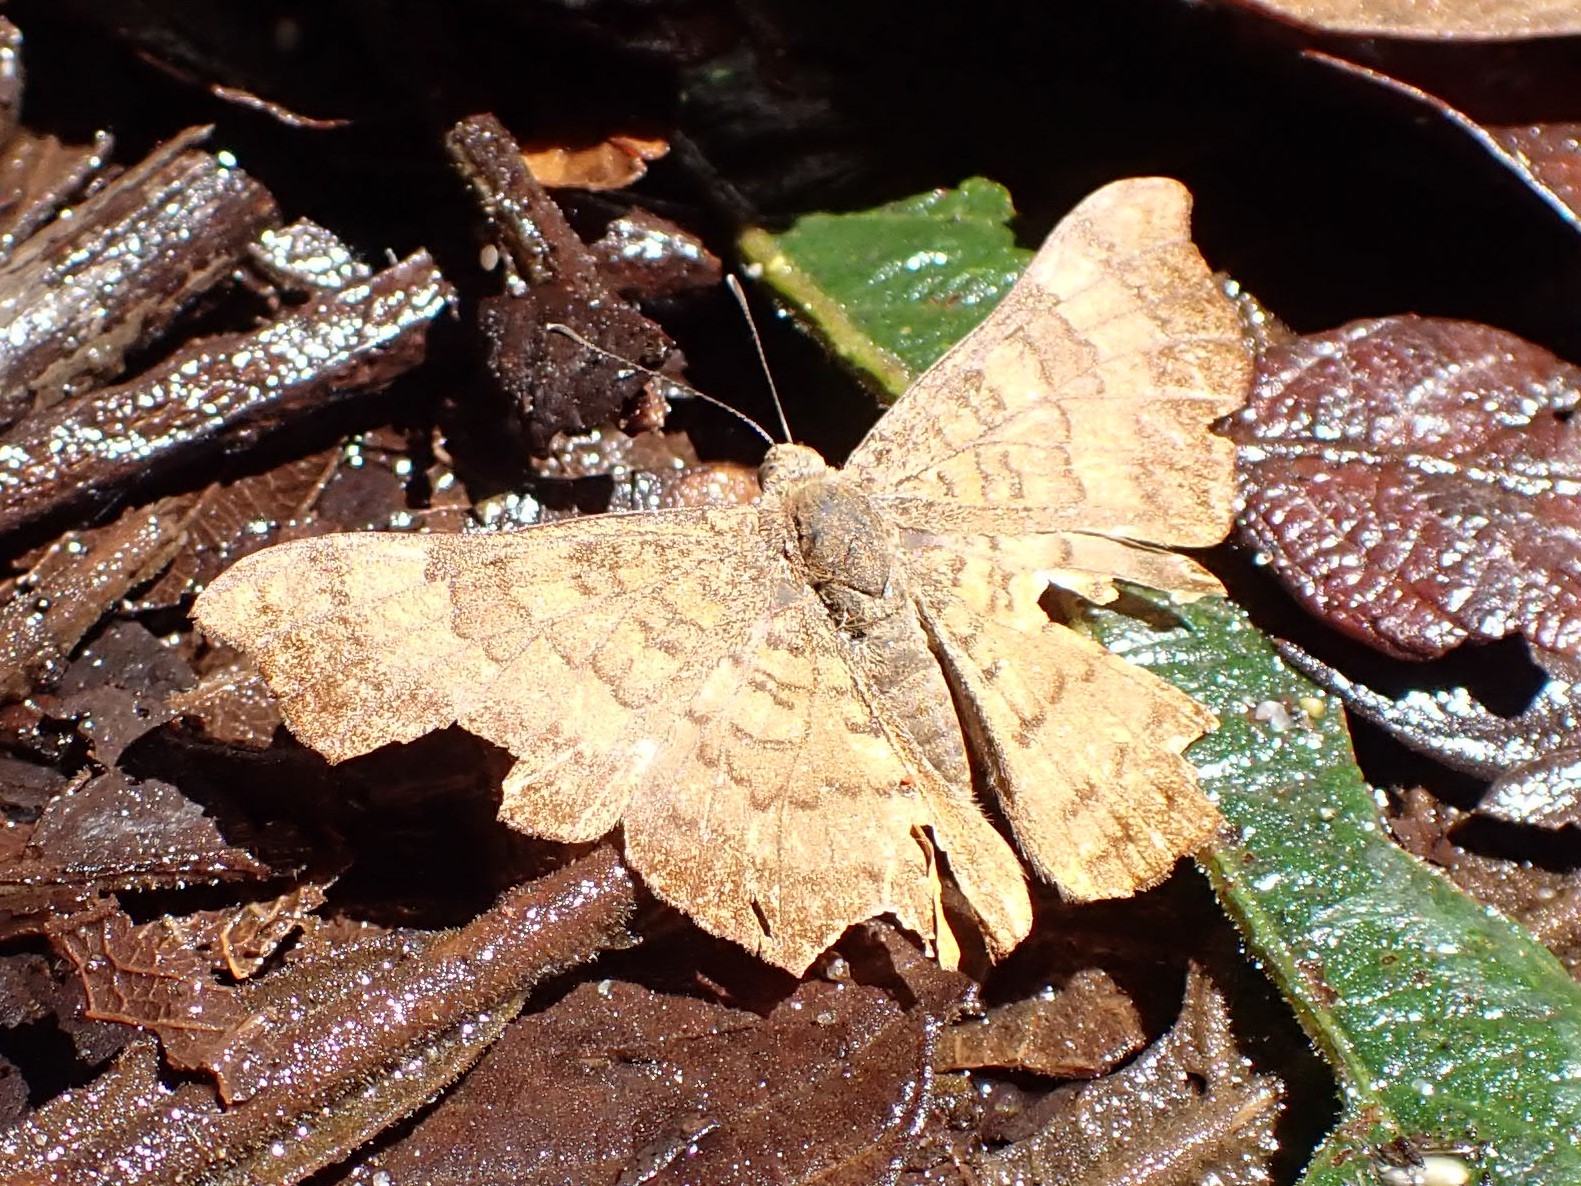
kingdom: Animalia
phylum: Arthropoda
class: Insecta
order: Lepidoptera
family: Lycaenidae
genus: Emesis
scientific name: Emesis angularis
